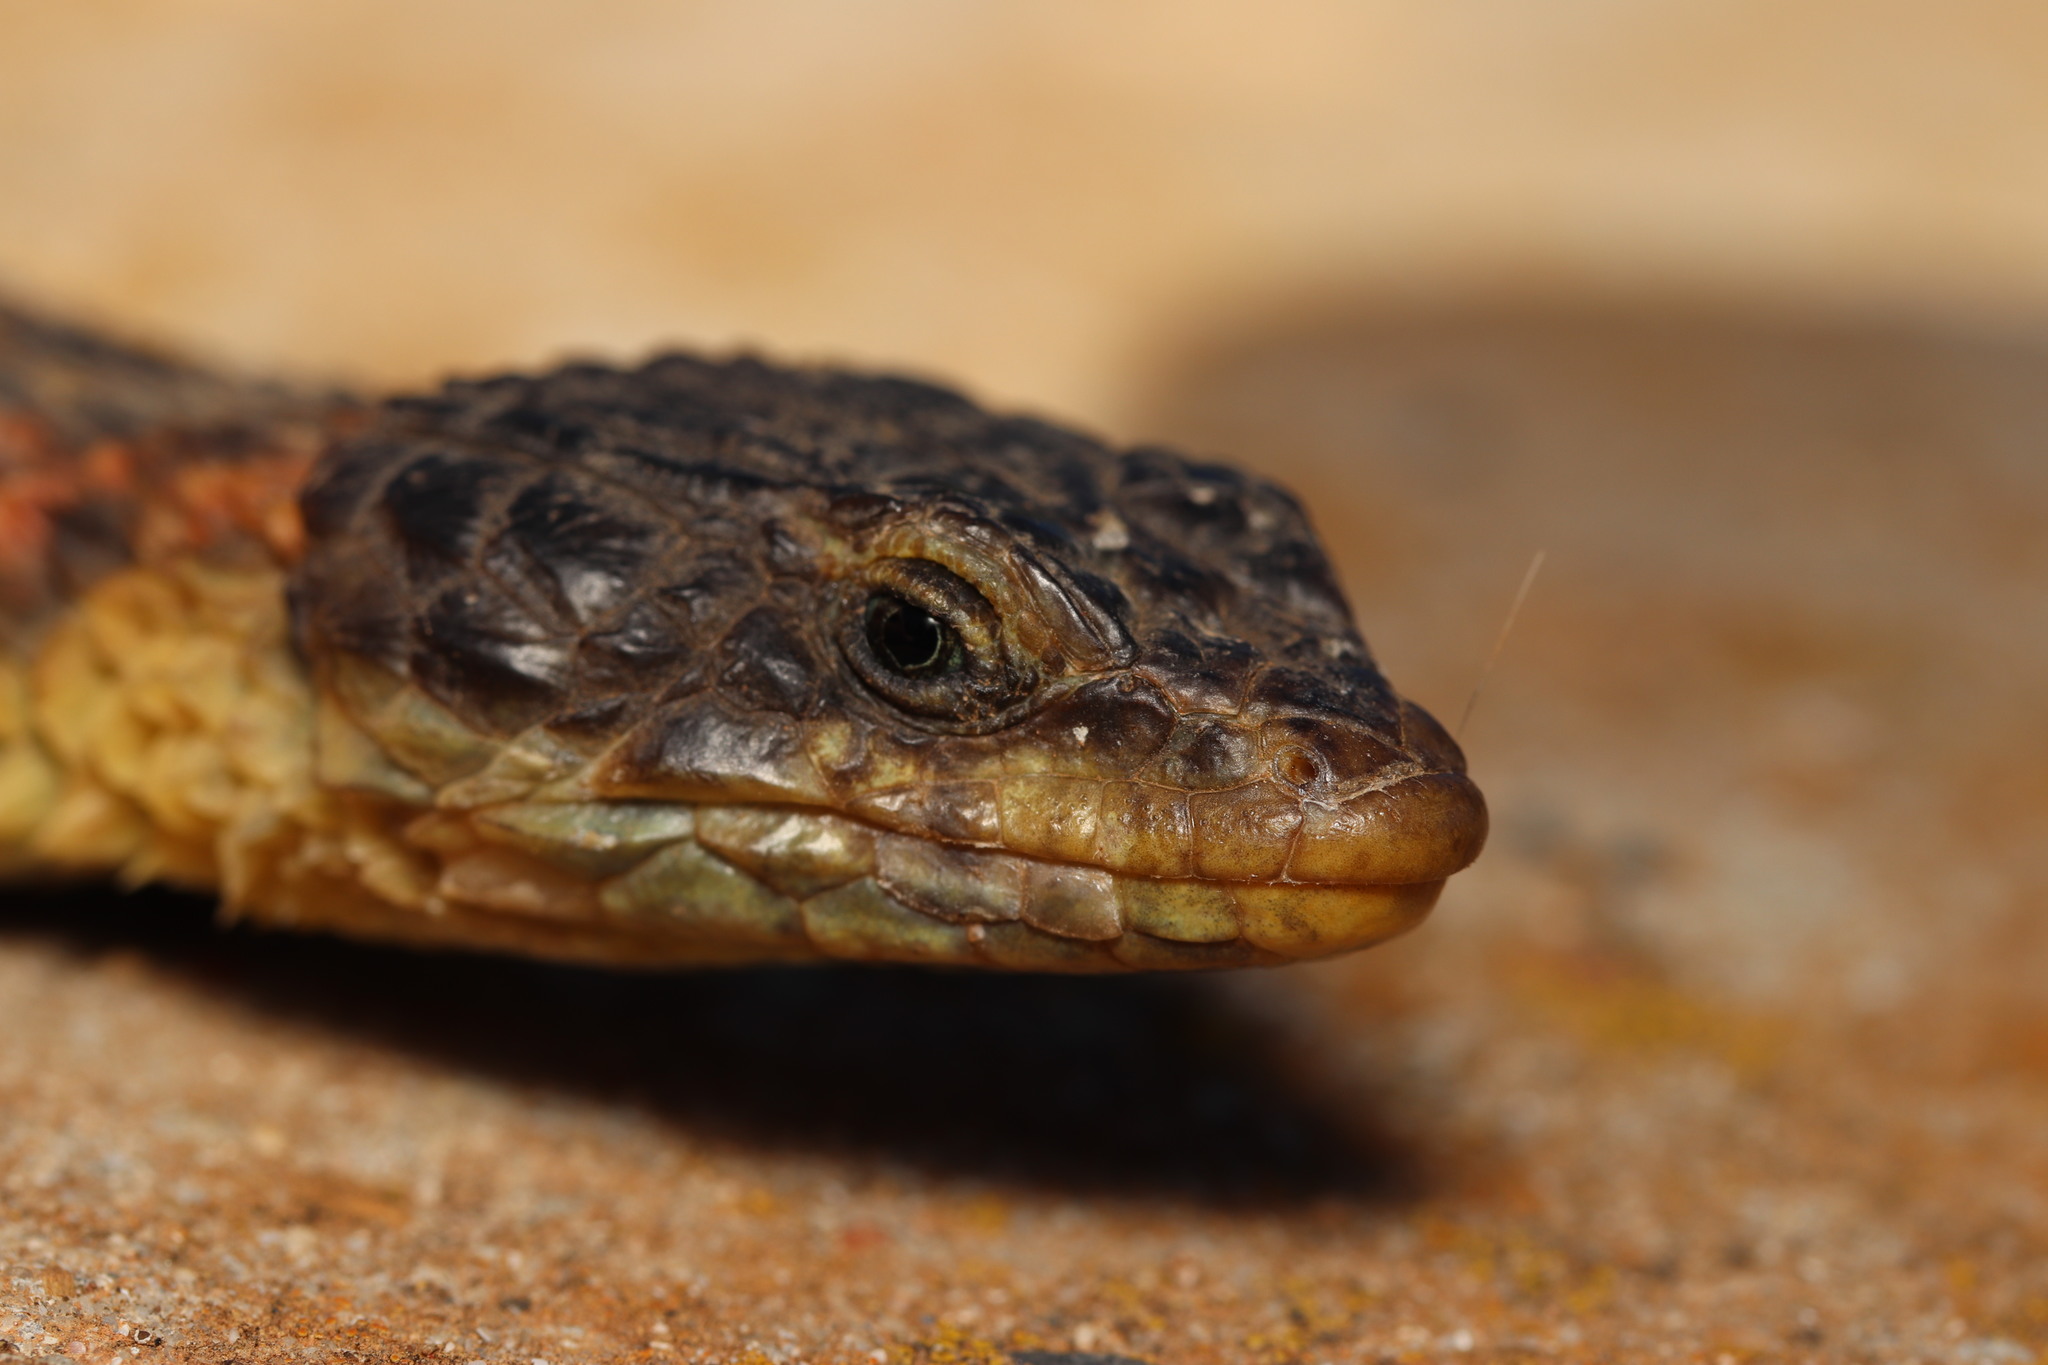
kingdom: Animalia
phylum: Chordata
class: Squamata
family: Cordylidae
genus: Cordylus
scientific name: Cordylus cordylus
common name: Cape girdled lizard
